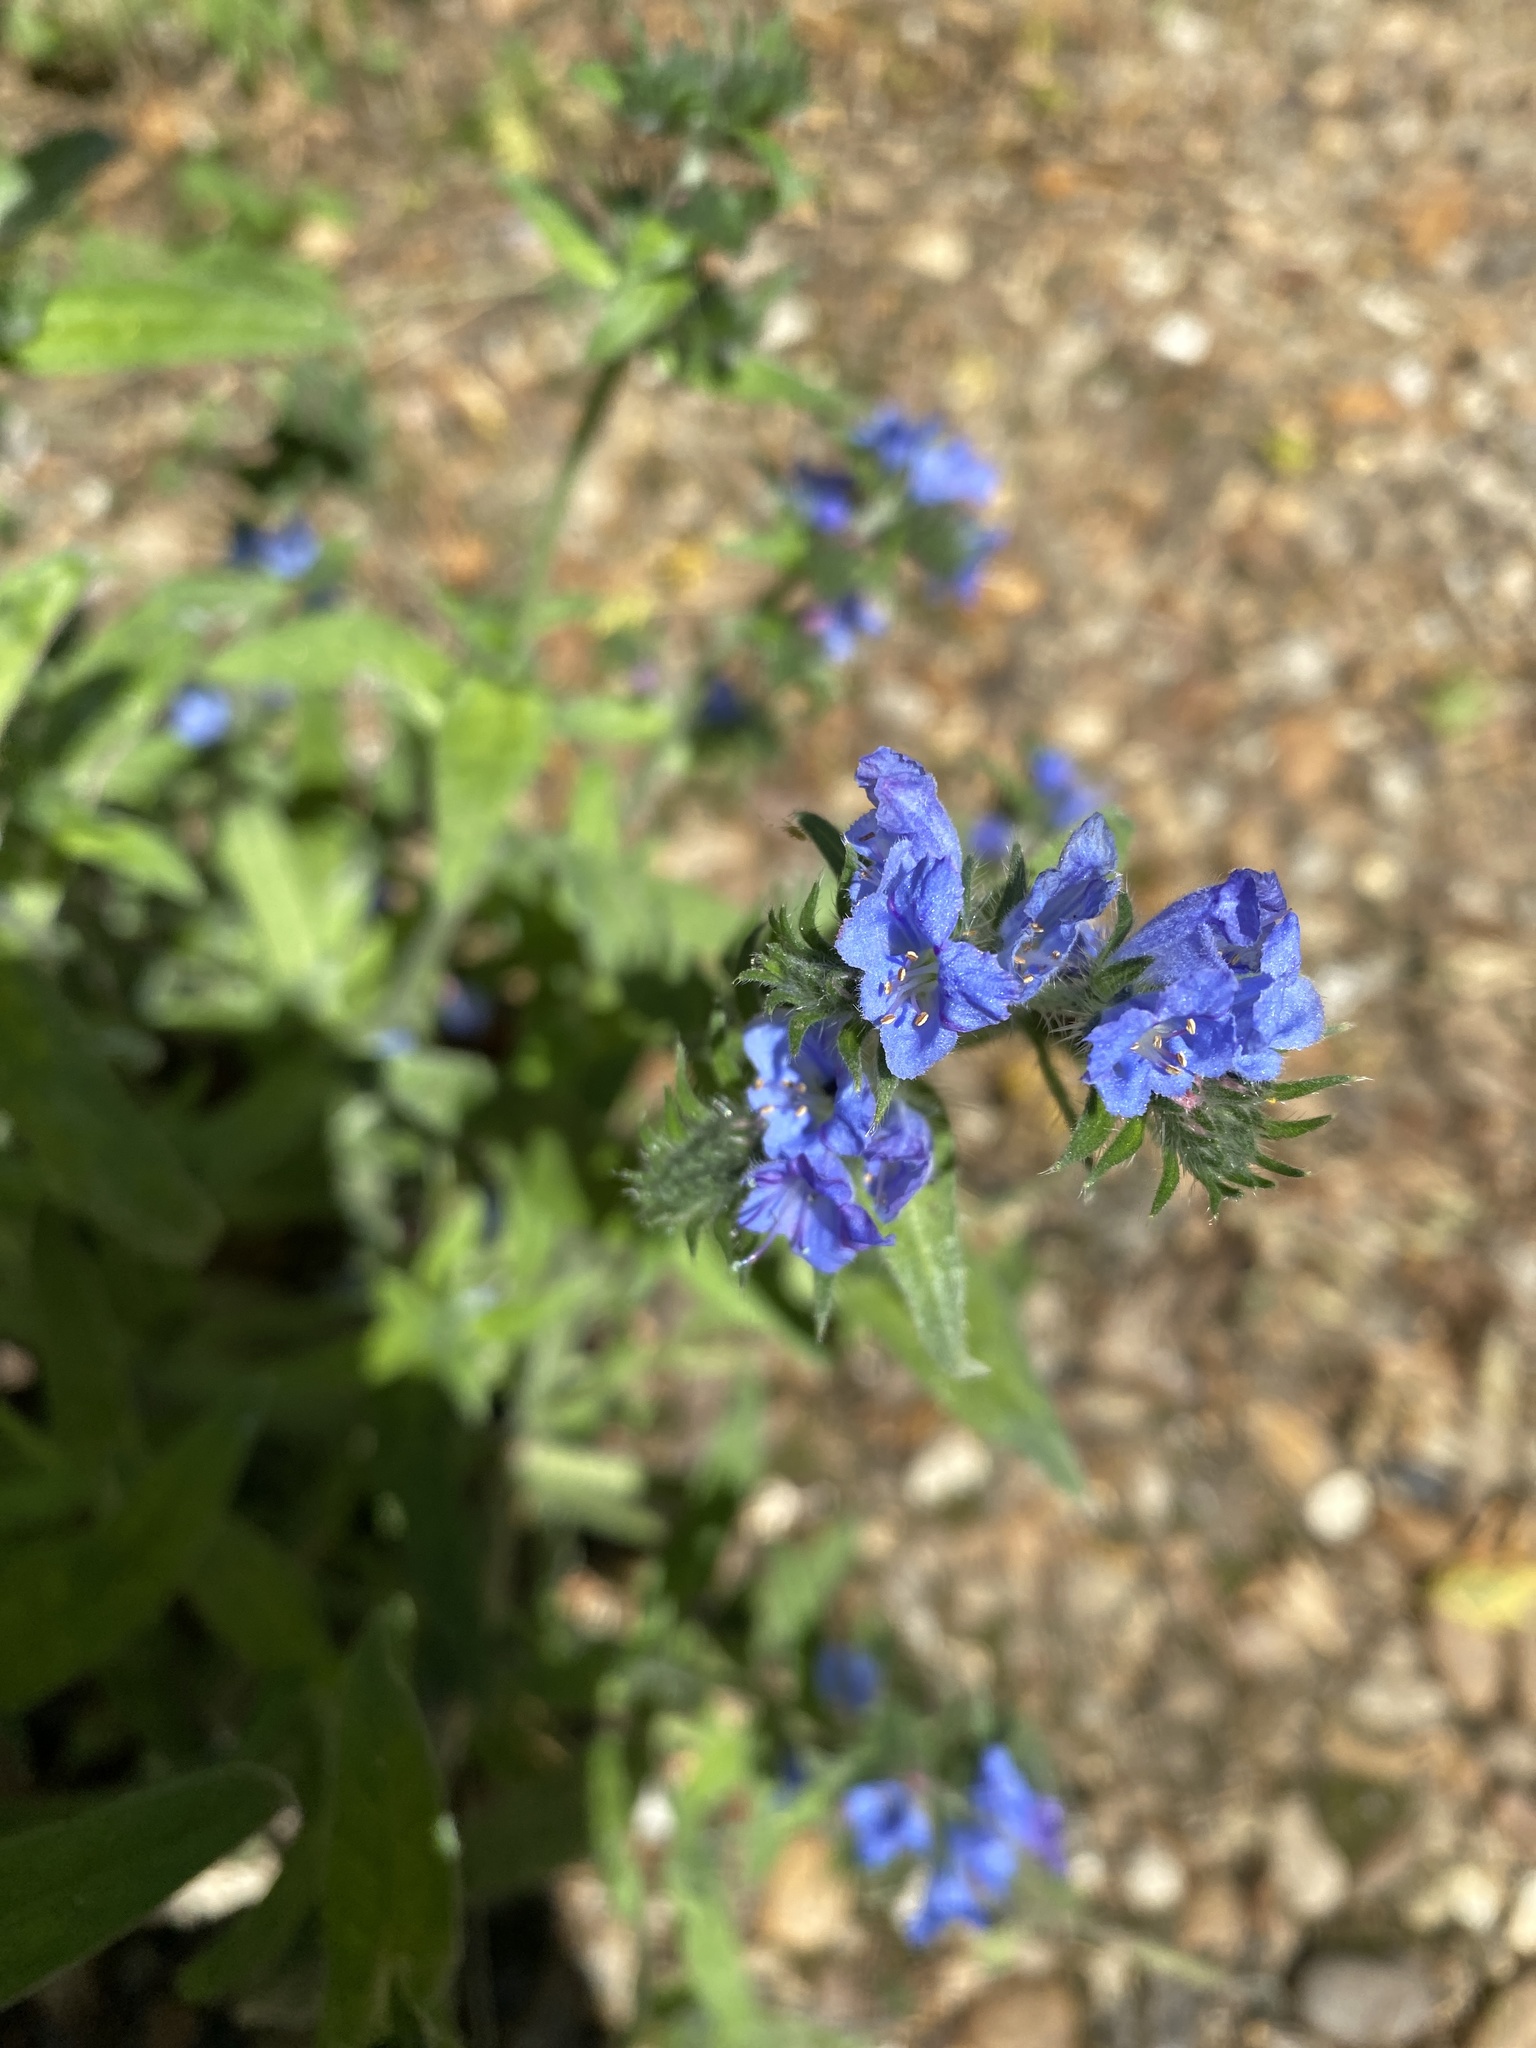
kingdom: Plantae
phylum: Tracheophyta
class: Magnoliopsida
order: Boraginales
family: Boraginaceae
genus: Echium
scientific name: Echium vulgare
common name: Common viper's bugloss
